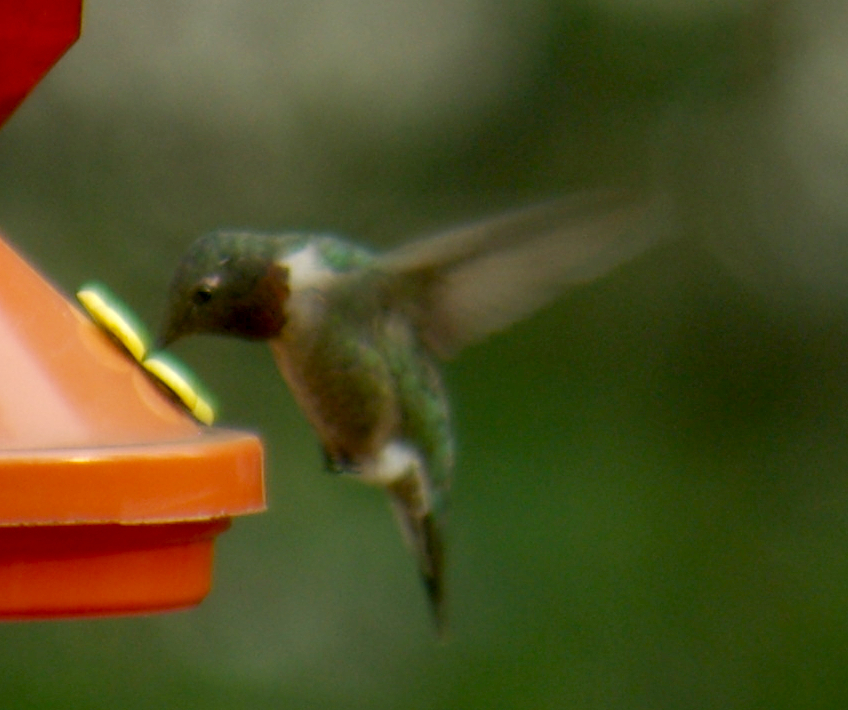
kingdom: Animalia
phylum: Chordata
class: Aves
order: Apodiformes
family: Trochilidae
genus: Archilochus
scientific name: Archilochus colubris
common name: Ruby-throated hummingbird
